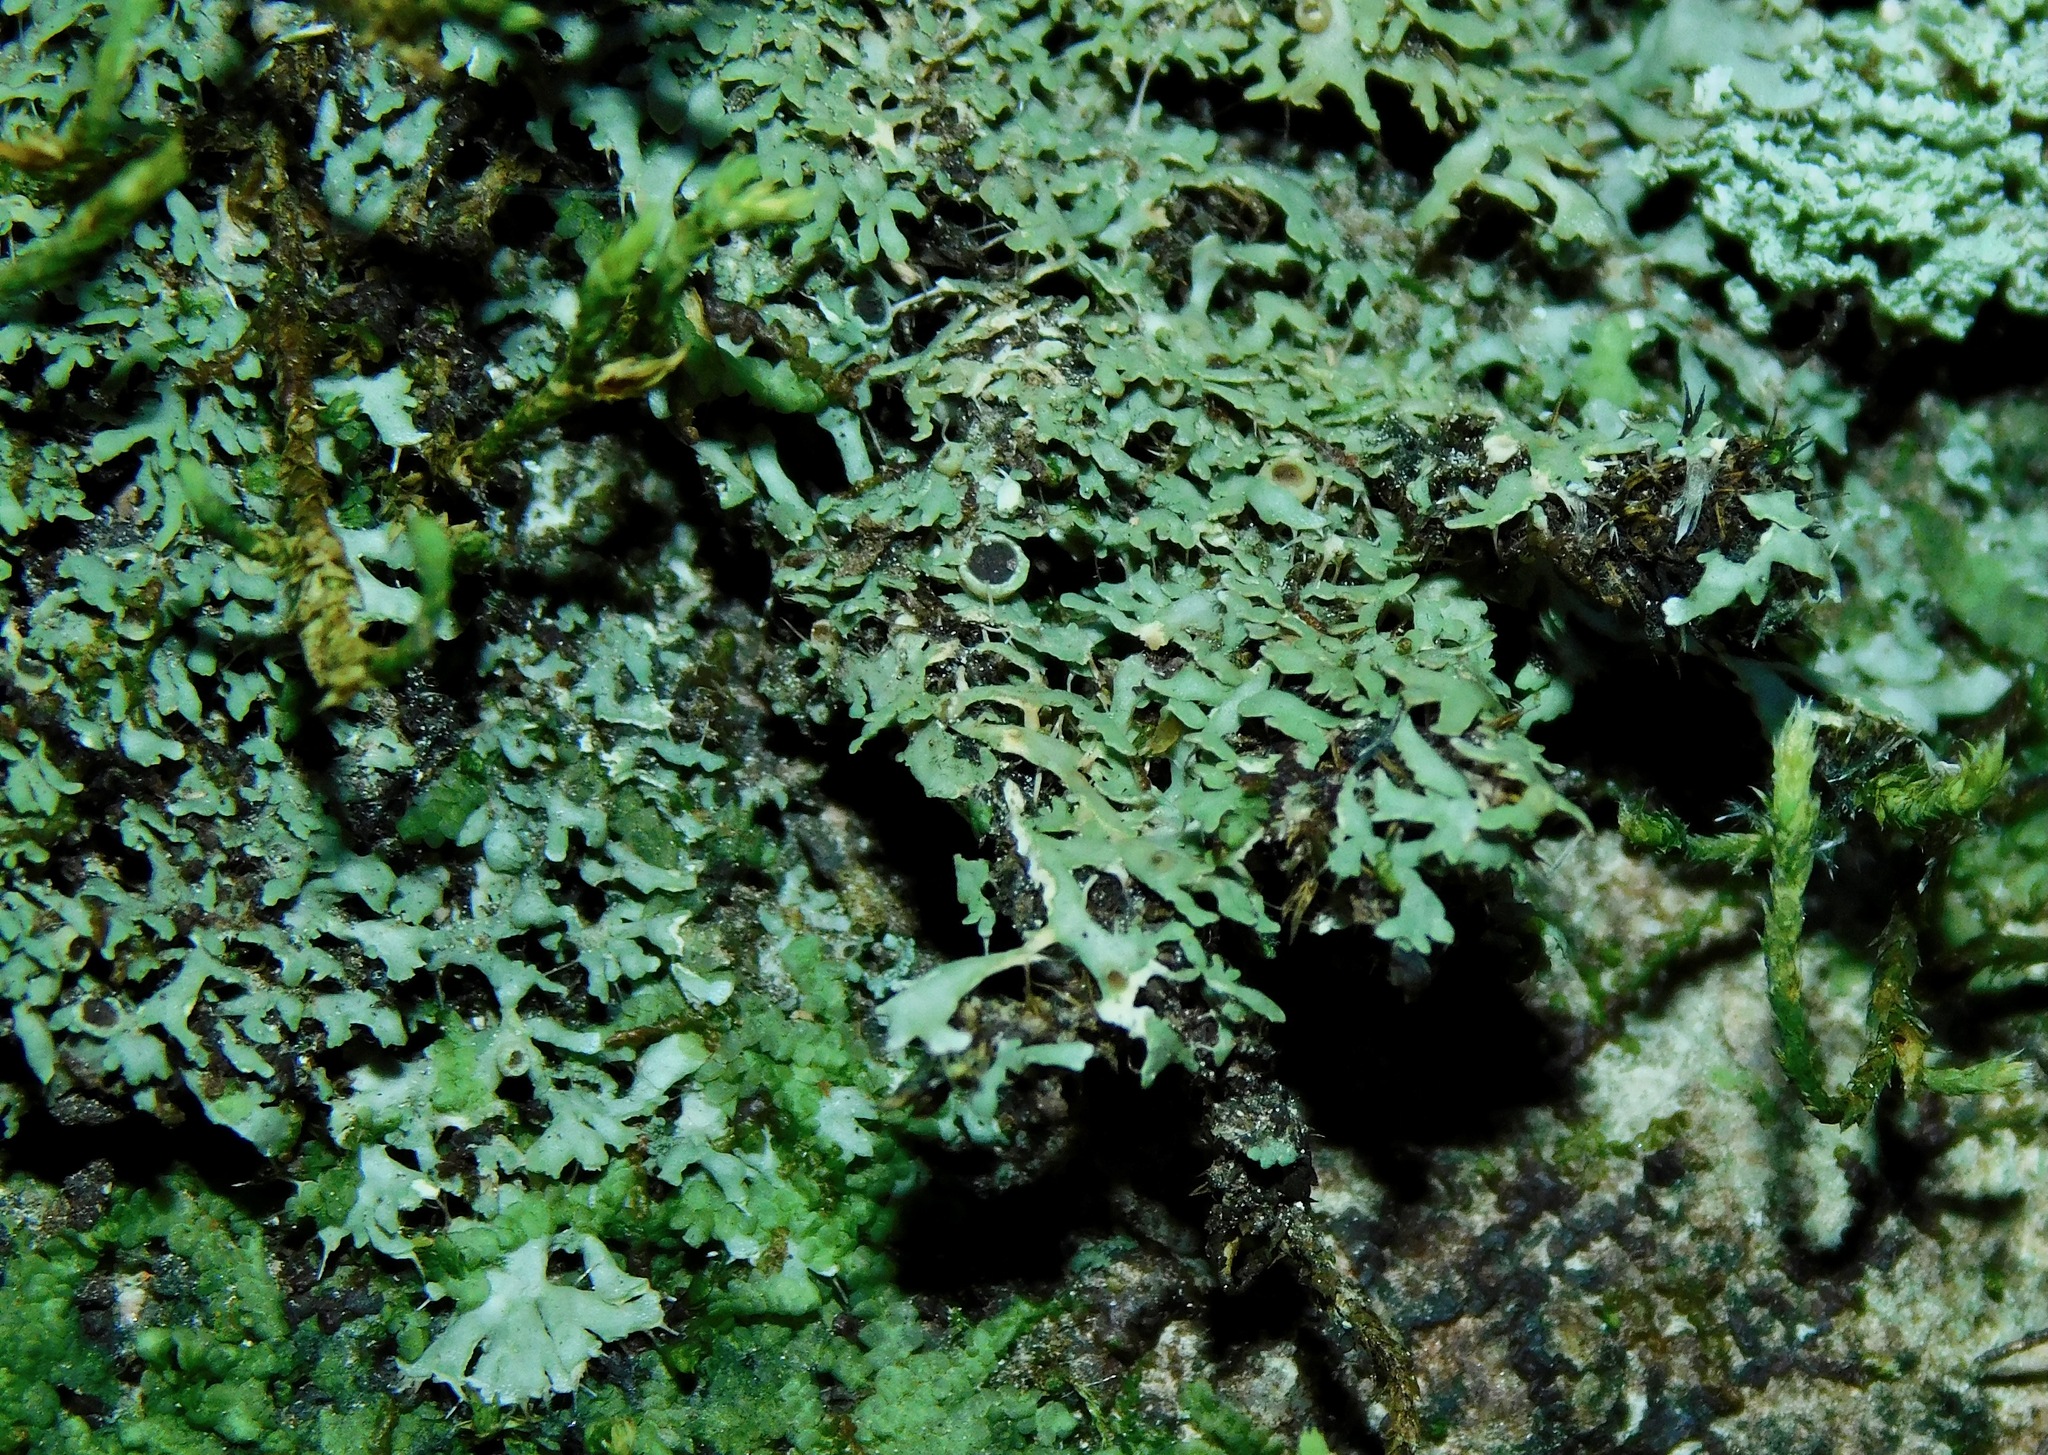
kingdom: Fungi
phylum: Ascomycota
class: Lecanoromycetes
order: Caliciales
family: Physciaceae
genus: Kurokawia
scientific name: Kurokawia palmulata
